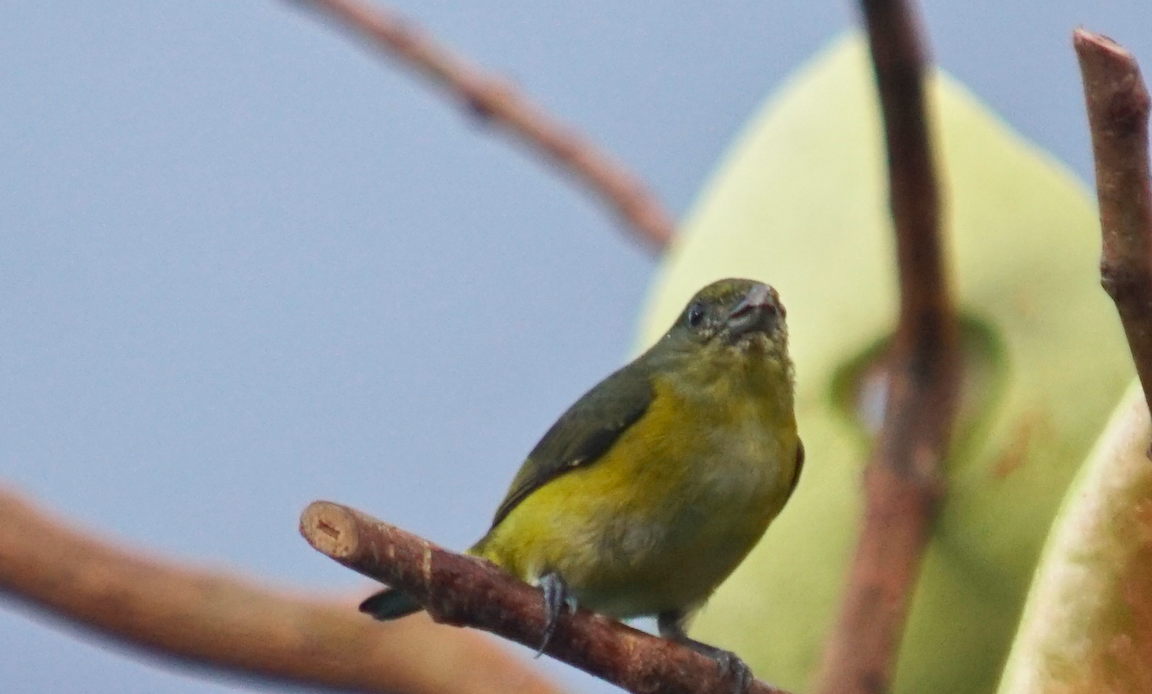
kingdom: Animalia
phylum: Chordata
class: Aves
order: Passeriformes
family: Fringillidae
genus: Euphonia
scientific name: Euphonia hirundinacea
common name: Yellow-throated euphonia
